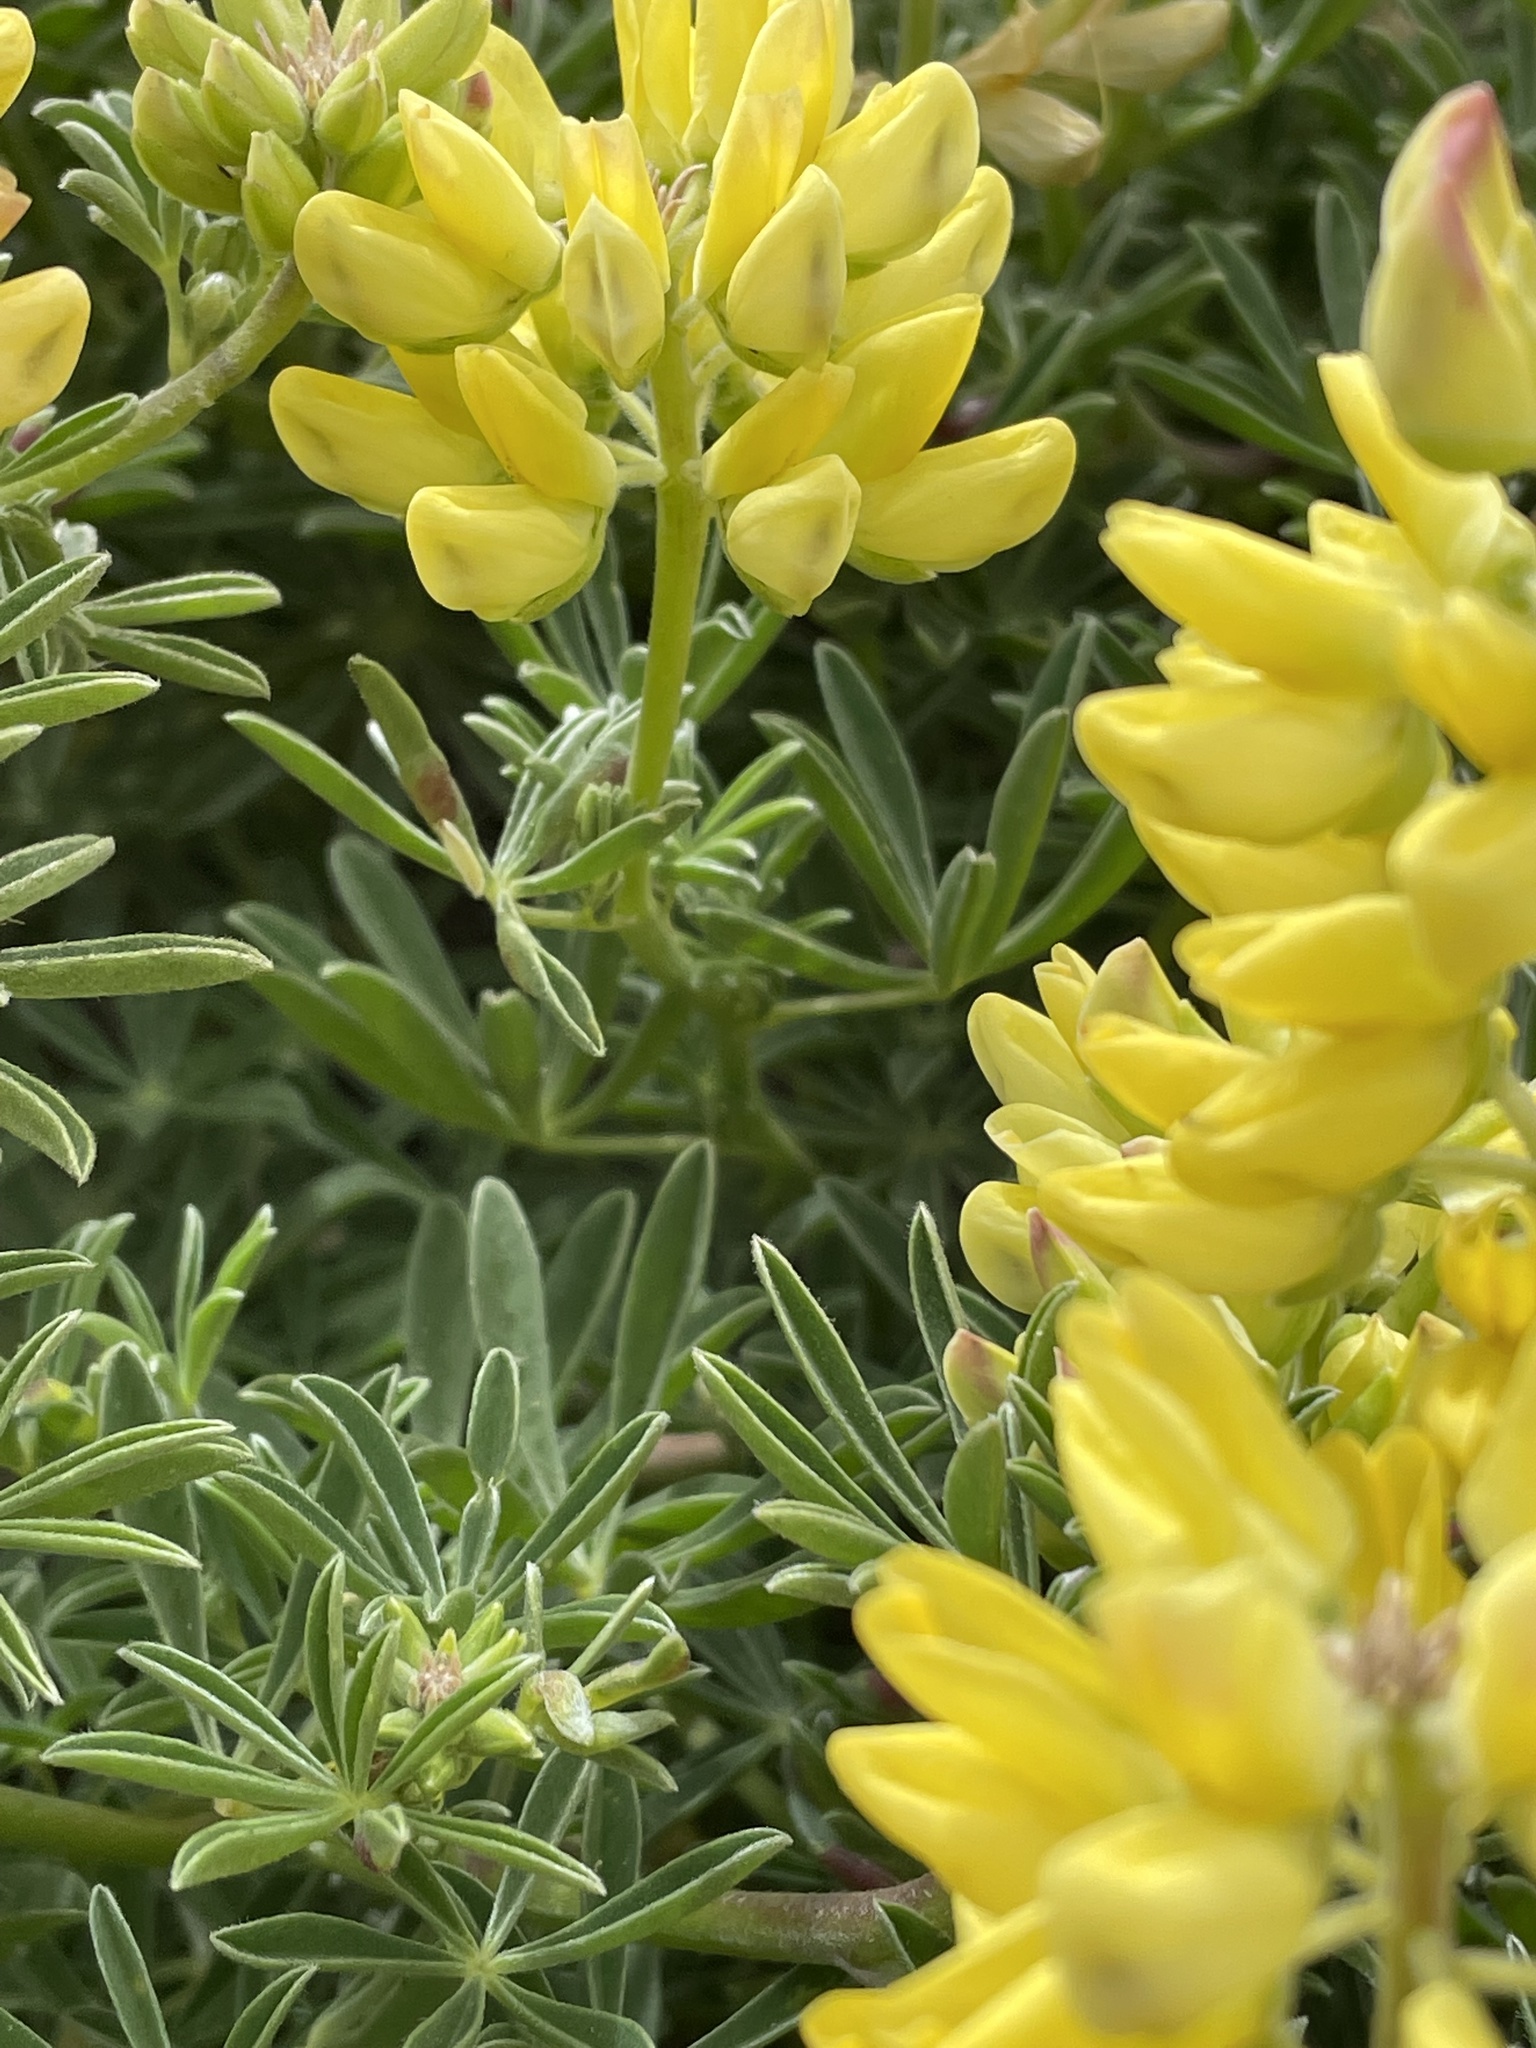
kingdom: Plantae
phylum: Tracheophyta
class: Magnoliopsida
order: Fabales
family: Fabaceae
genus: Lupinus
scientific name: Lupinus arboreus
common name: Yellow bush lupine
